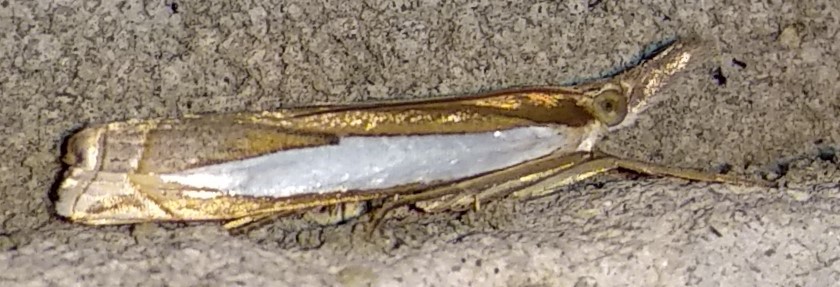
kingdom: Animalia
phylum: Arthropoda
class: Insecta
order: Lepidoptera
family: Crambidae
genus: Crambus
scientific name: Crambus leachellus
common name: Leach's grass-veneer
